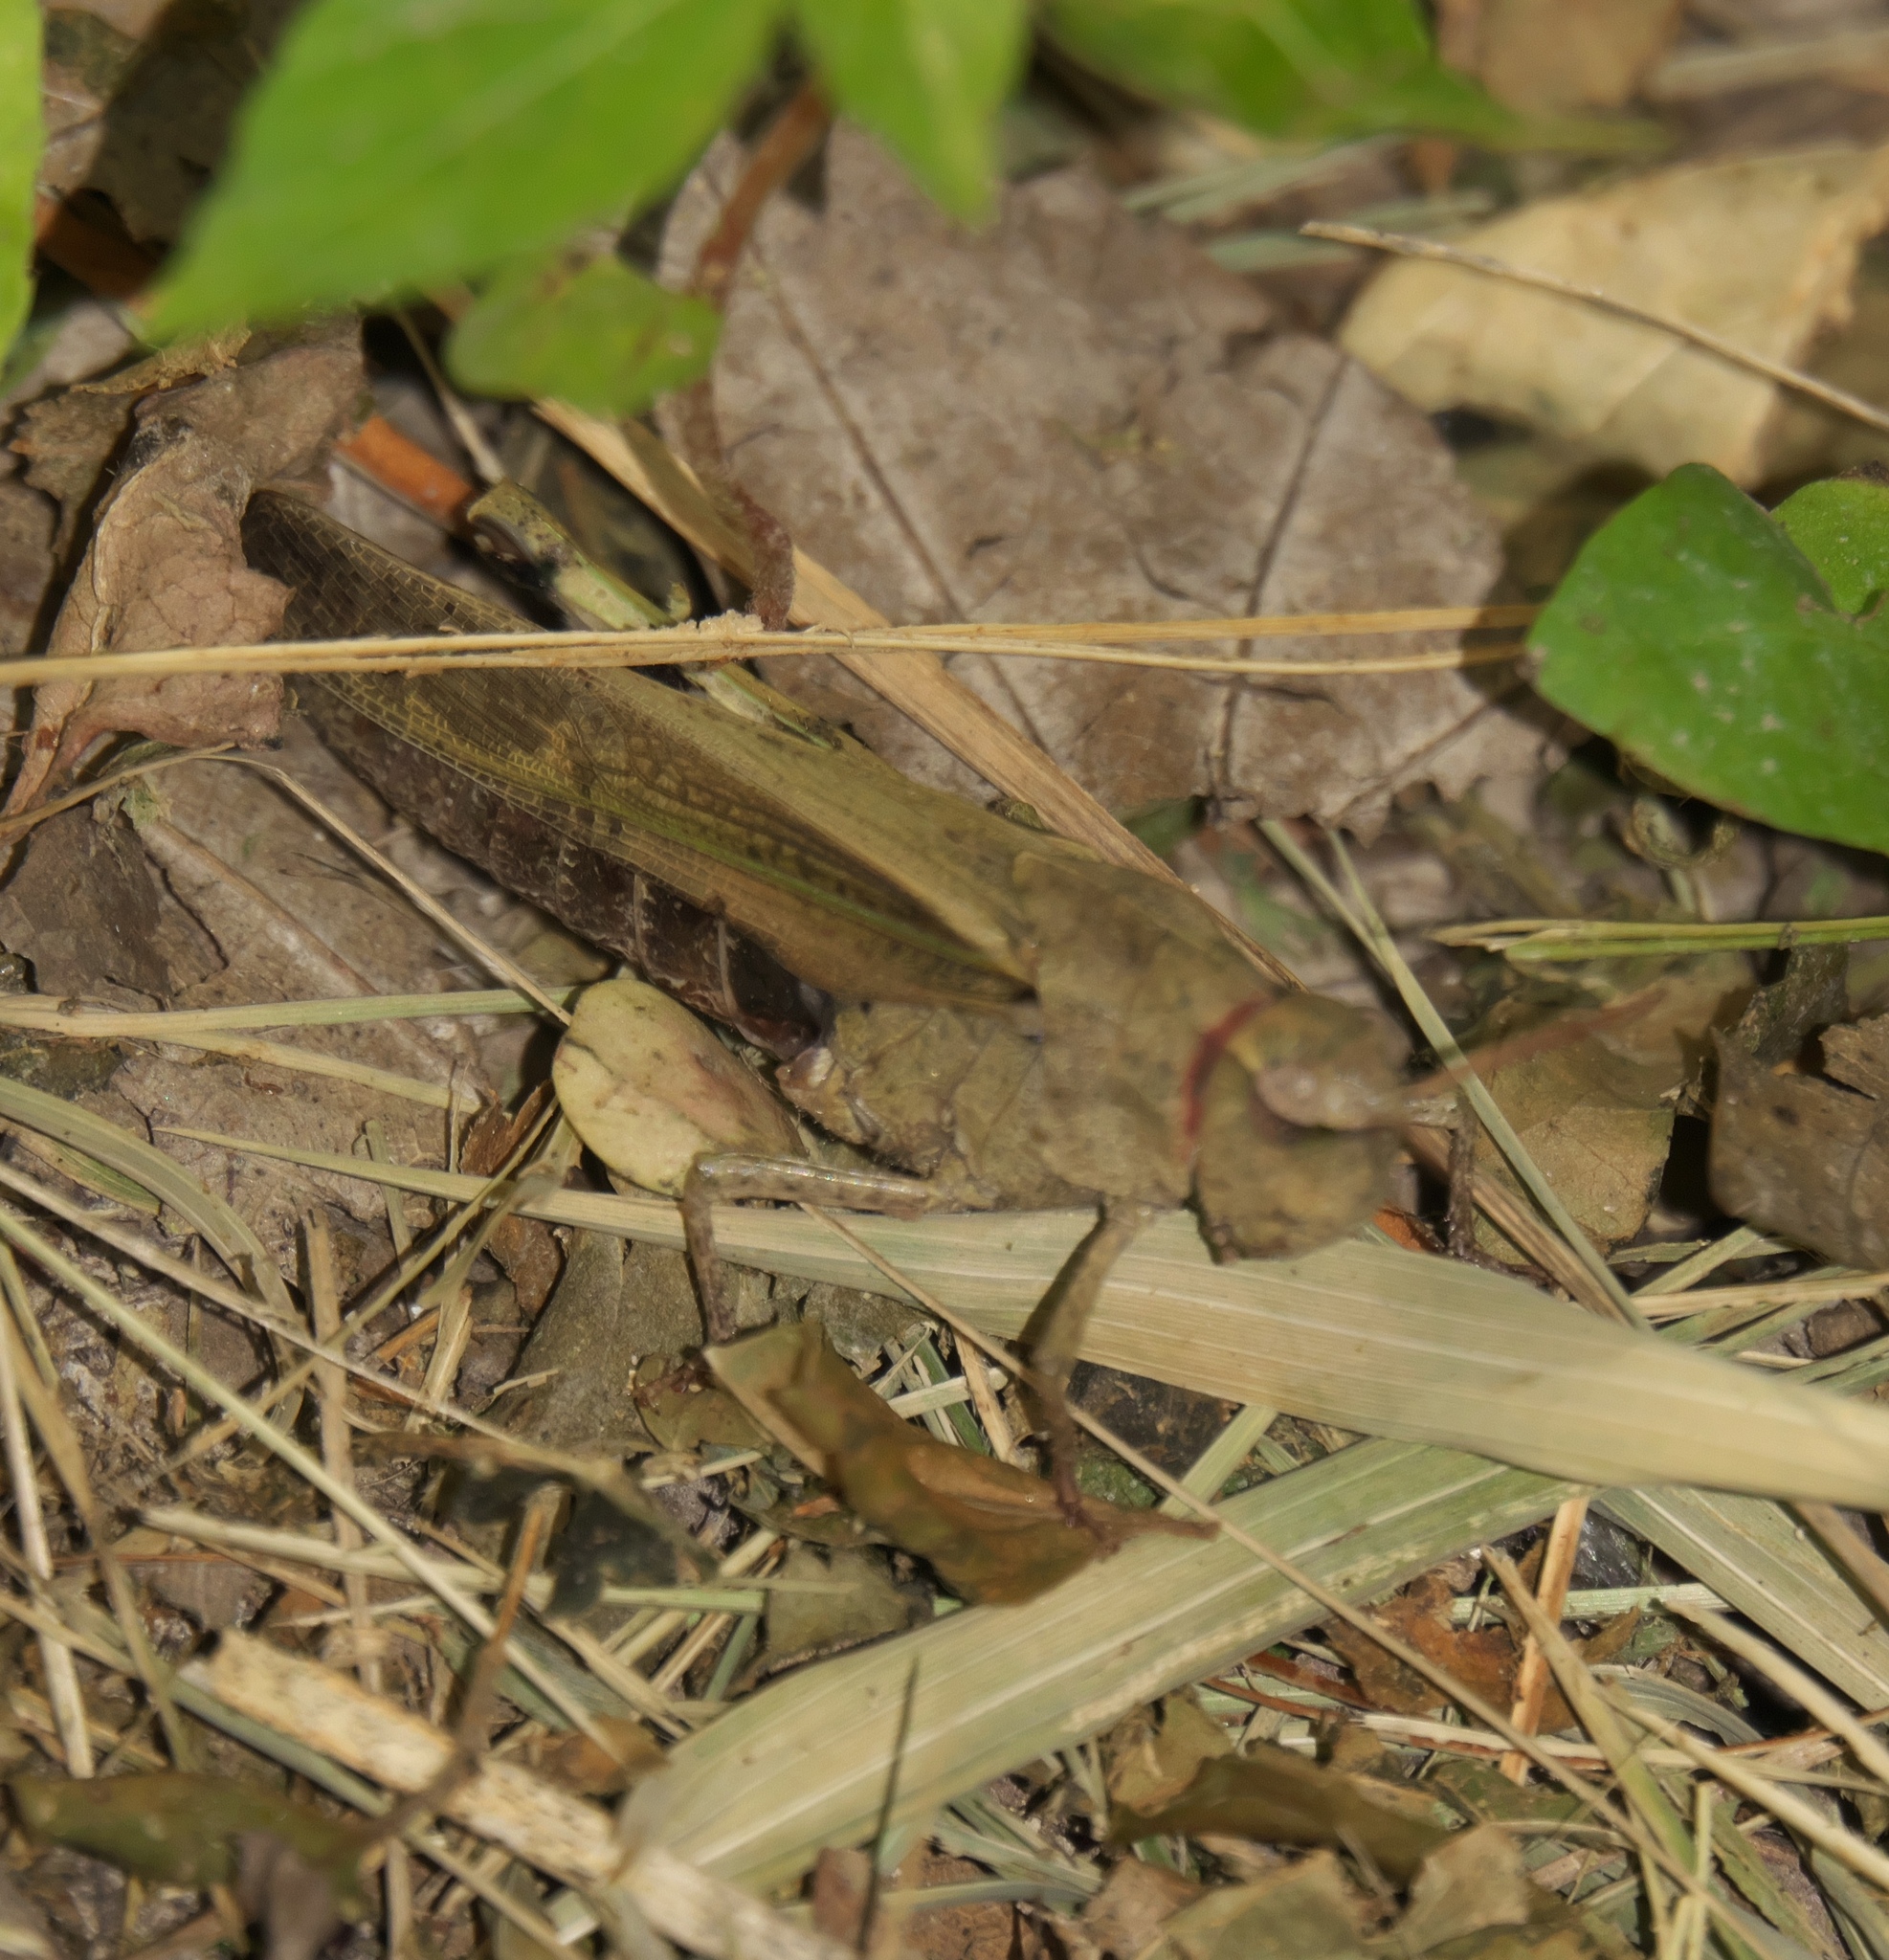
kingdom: Animalia
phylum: Arthropoda
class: Insecta
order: Orthoptera
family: Acrididae
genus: Chortophaga
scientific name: Chortophaga viridifasciata
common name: Green-striped grasshopper
